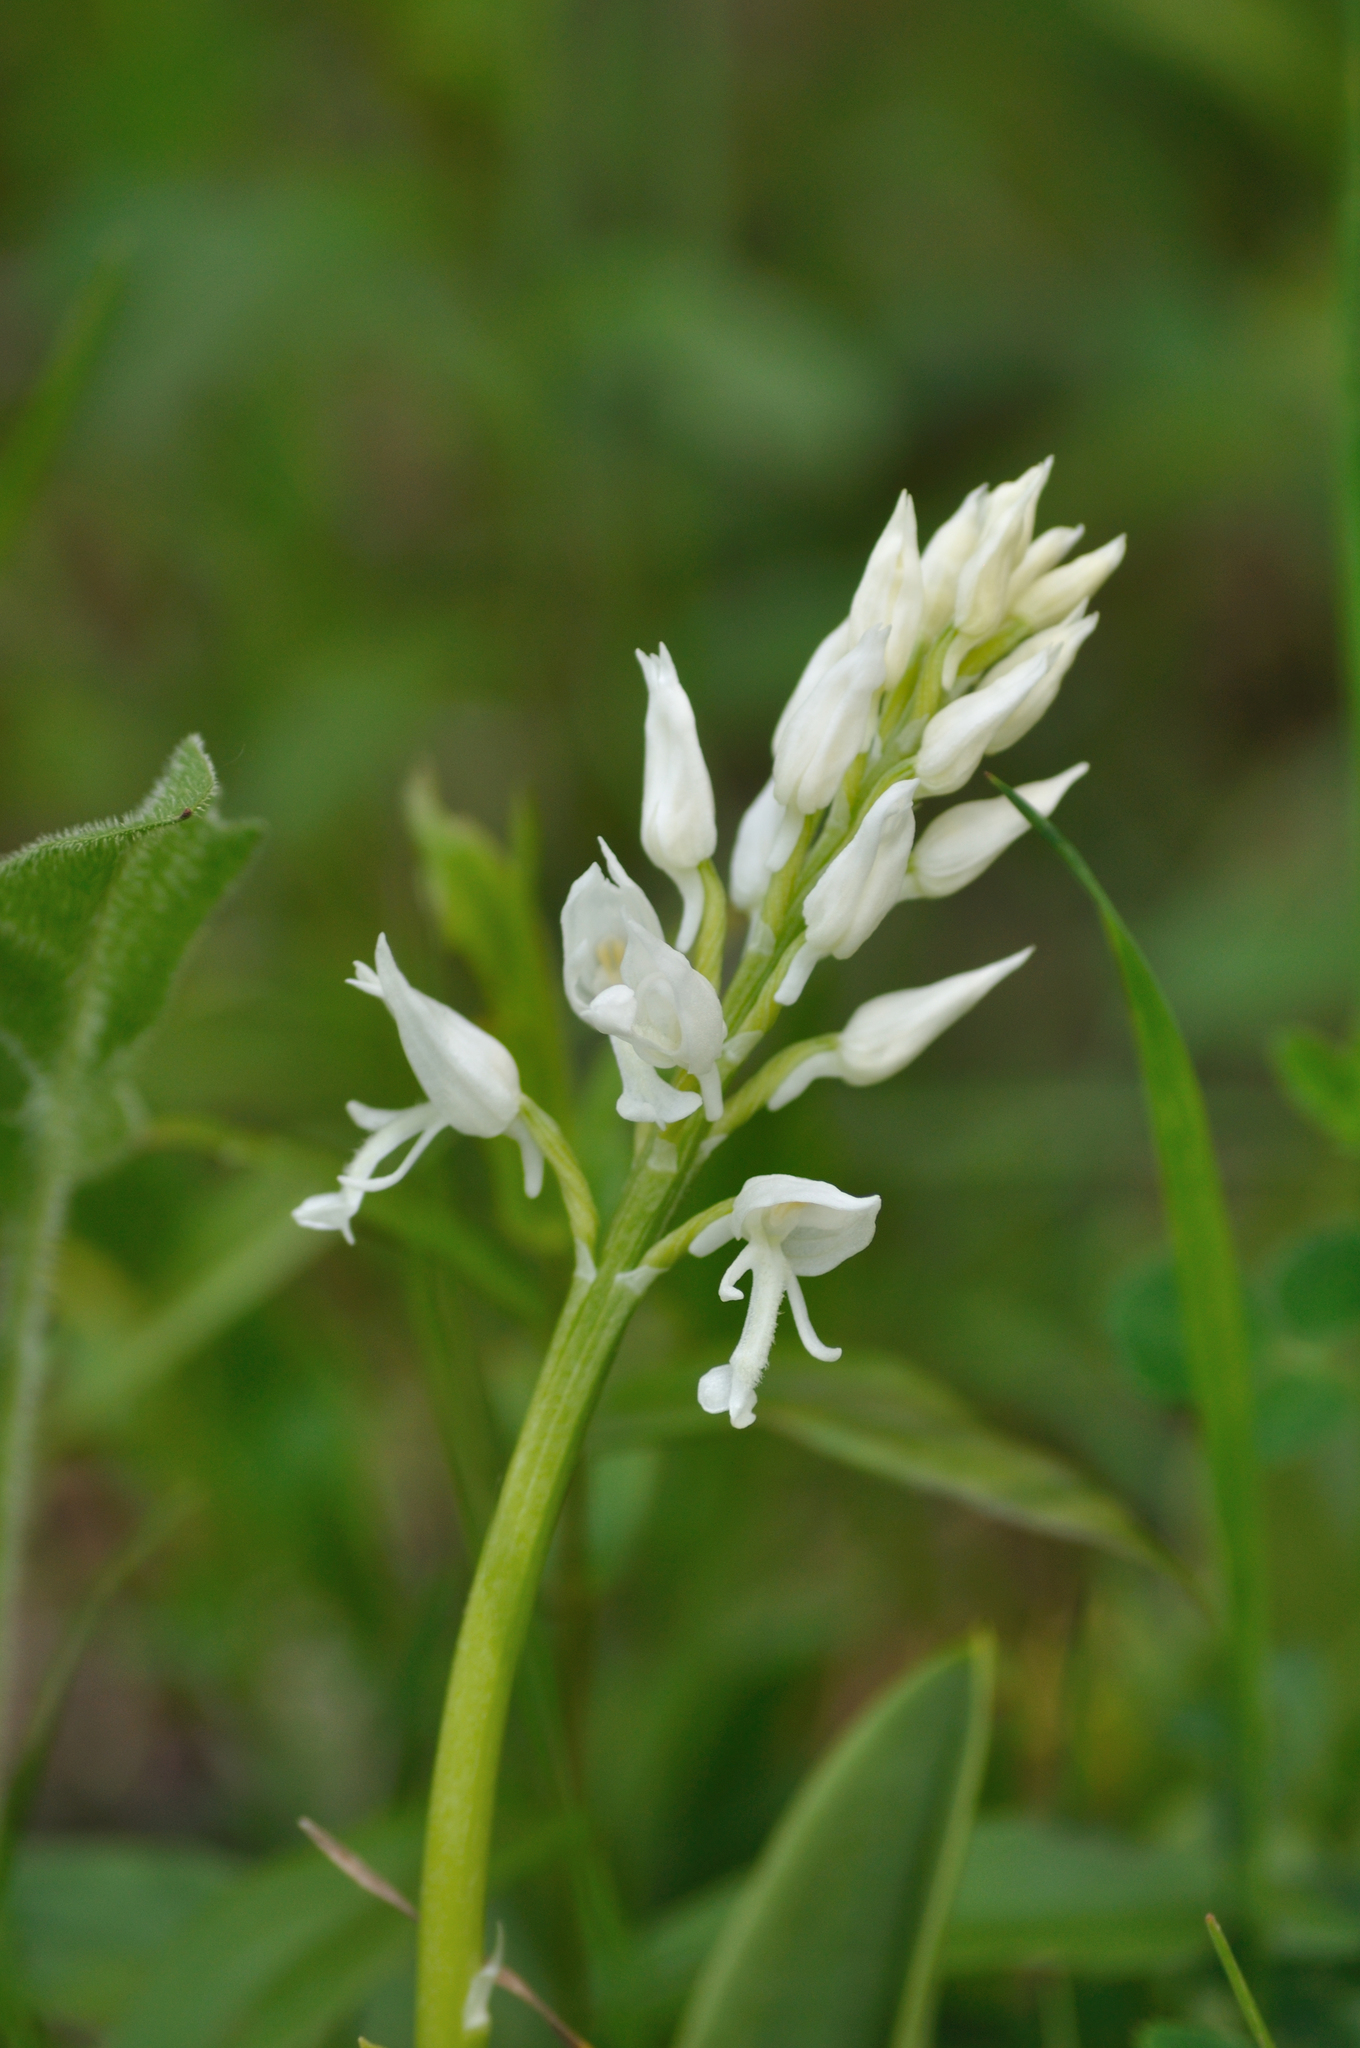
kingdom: Plantae
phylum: Tracheophyta
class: Liliopsida
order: Asparagales
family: Orchidaceae
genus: Orchis
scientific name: Orchis militaris
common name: Military orchid
